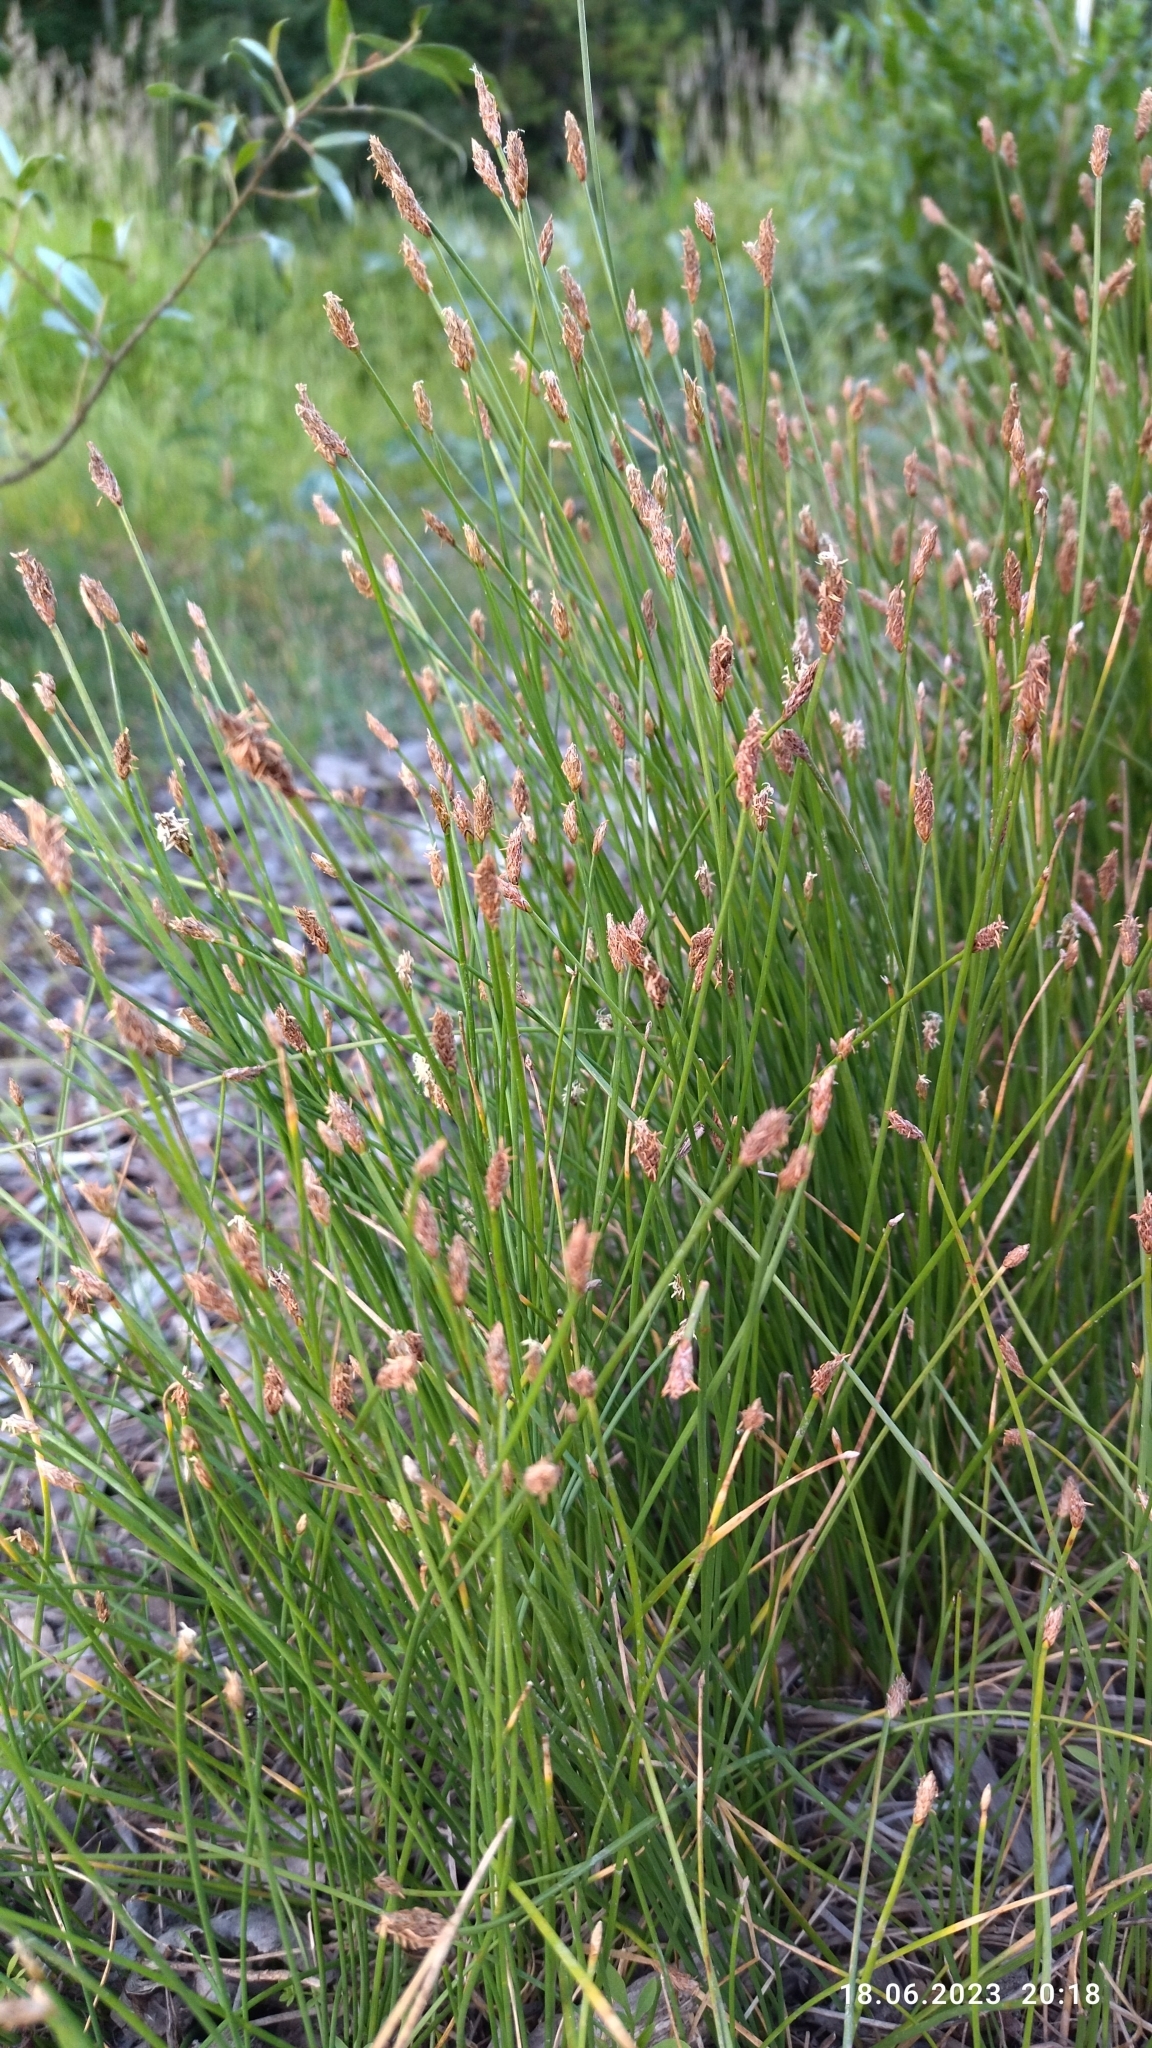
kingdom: Plantae
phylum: Tracheophyta
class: Liliopsida
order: Poales
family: Cyperaceae
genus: Eleocharis
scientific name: Eleocharis palustris
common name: Common spike-rush
